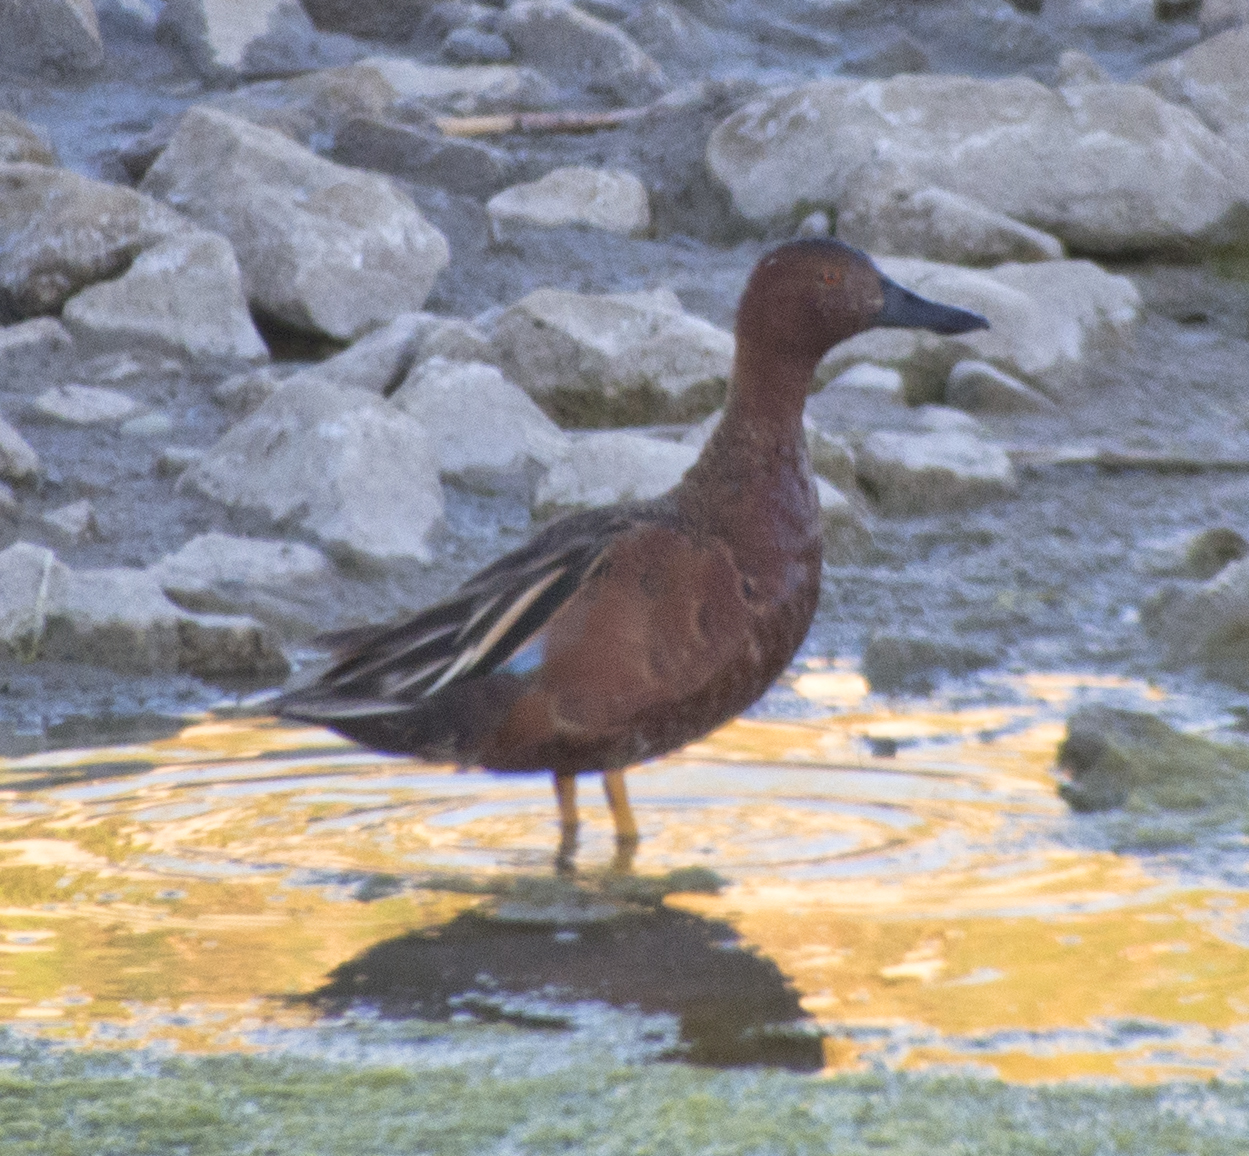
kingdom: Animalia
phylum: Chordata
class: Aves
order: Anseriformes
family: Anatidae
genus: Spatula
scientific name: Spatula cyanoptera
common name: Cinnamon teal
